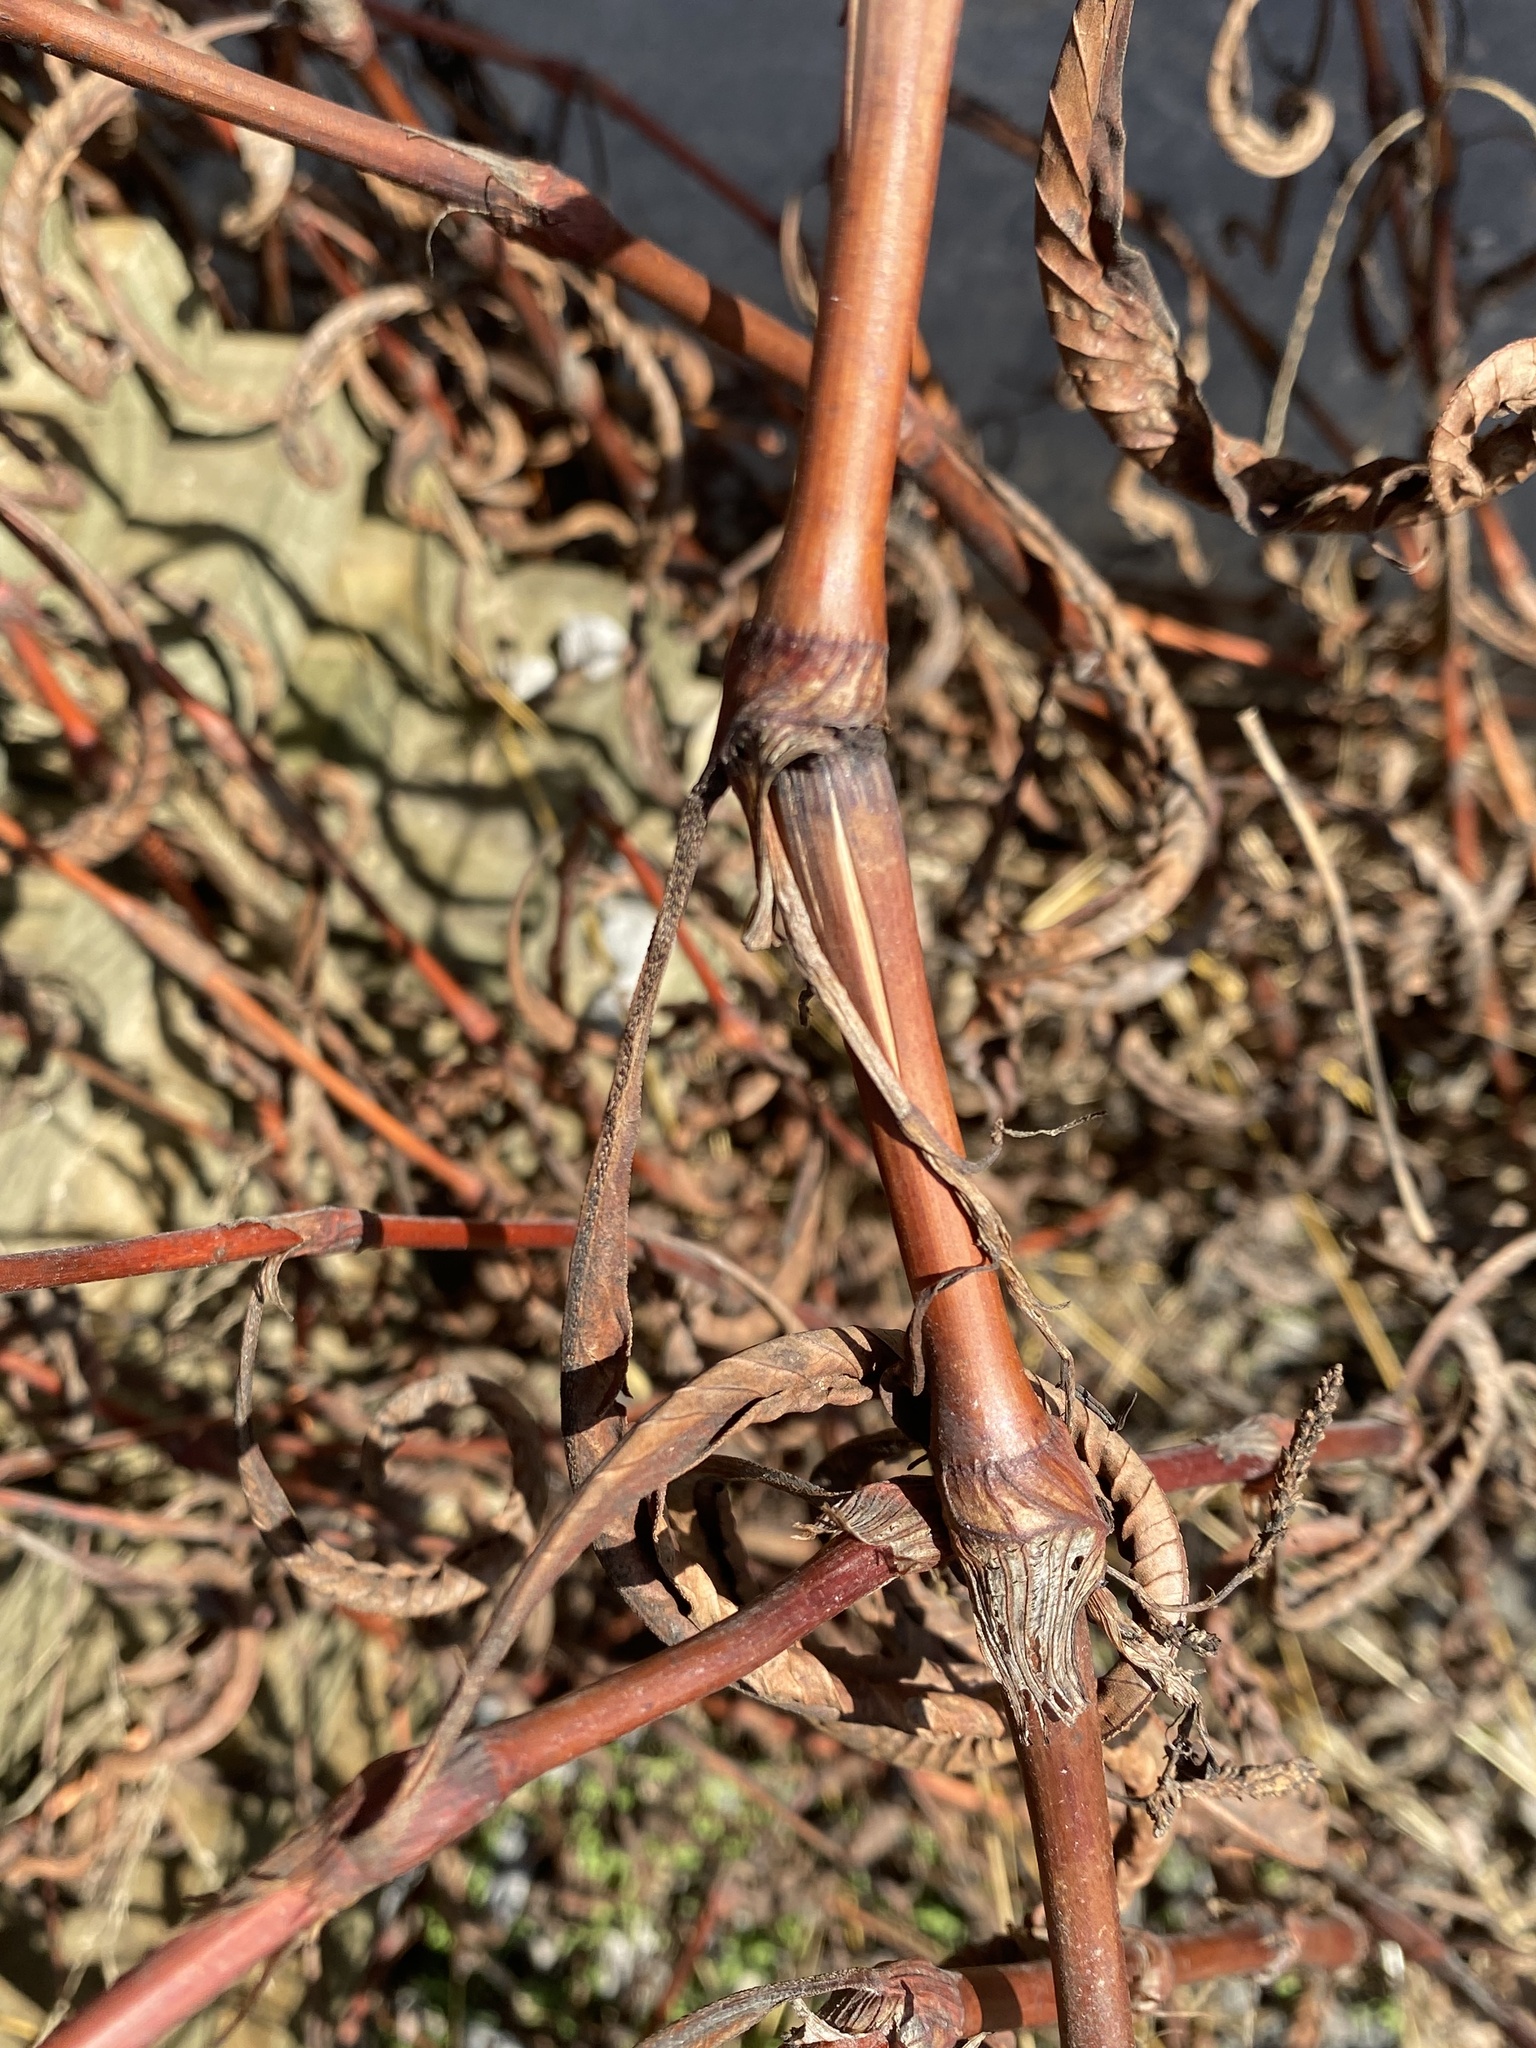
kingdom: Plantae
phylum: Tracheophyta
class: Magnoliopsida
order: Caryophyllales
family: Polygonaceae
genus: Persicaria
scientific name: Persicaria lapathifolia
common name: Curlytop knotweed
